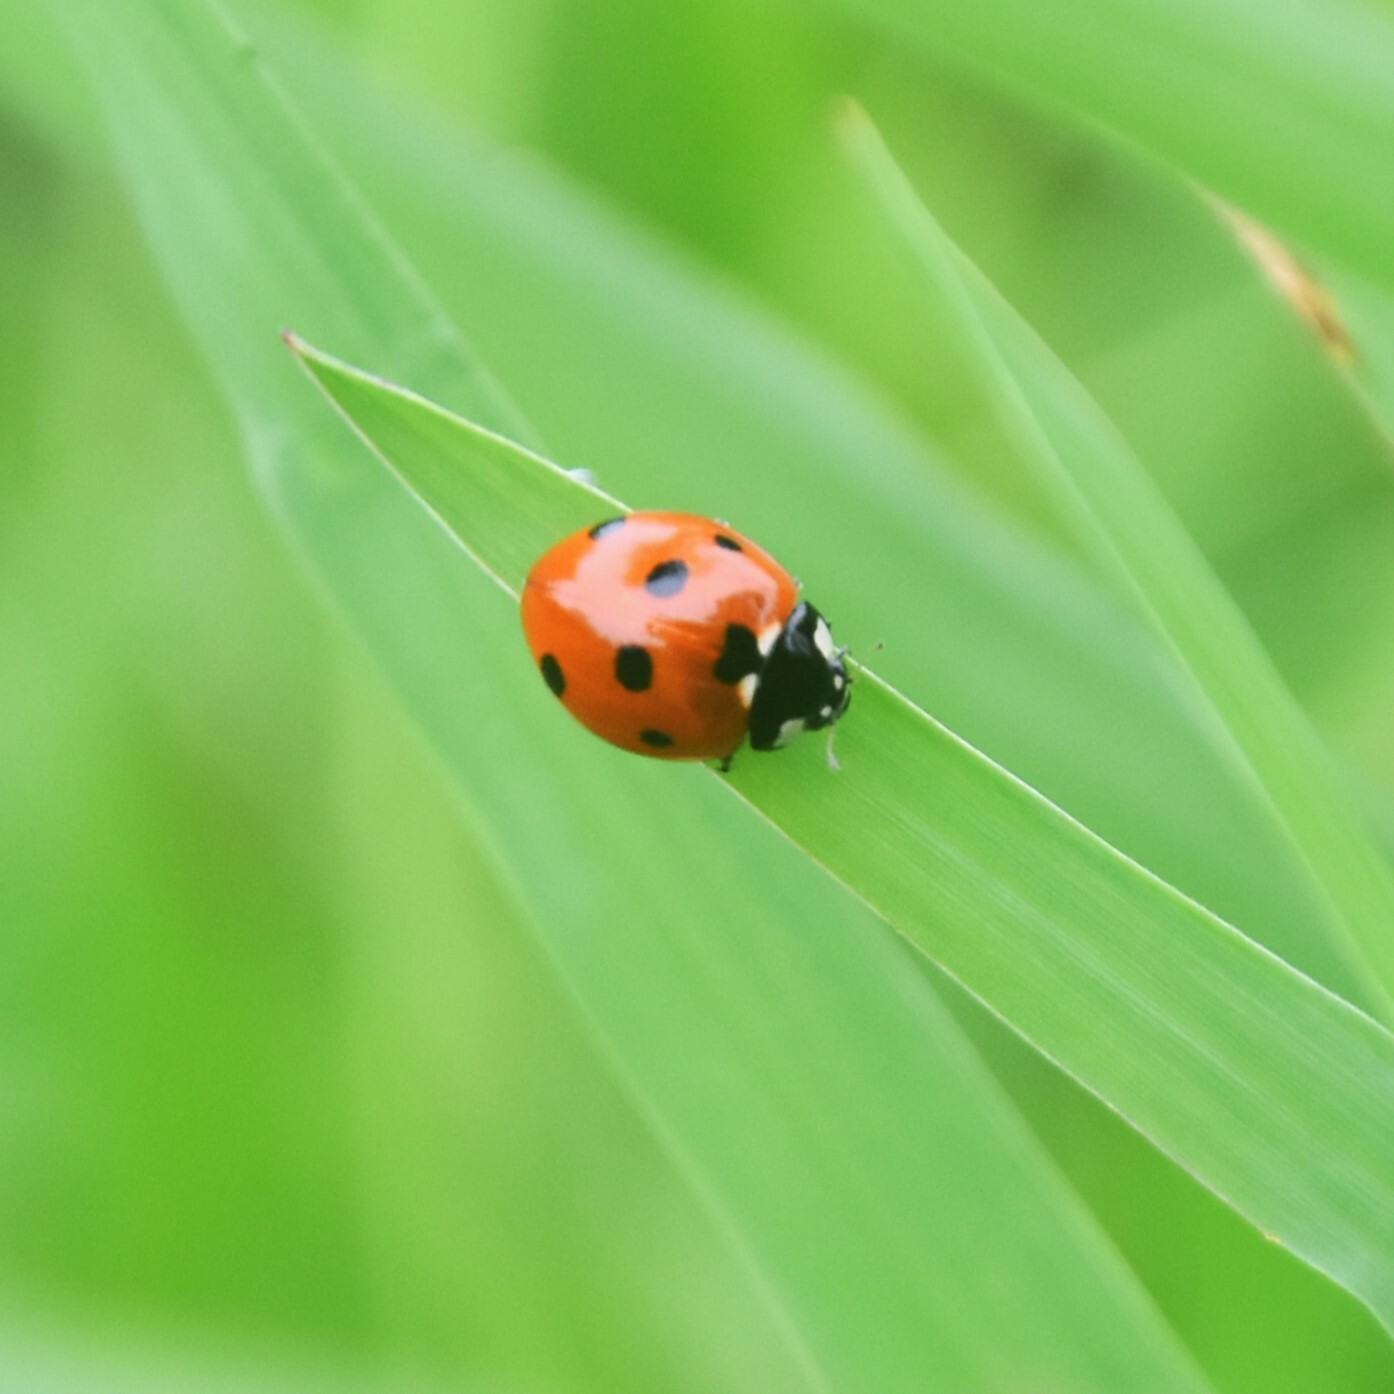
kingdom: Animalia
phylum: Arthropoda
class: Insecta
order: Coleoptera
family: Coccinellidae
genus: Coccinella
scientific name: Coccinella septempunctata
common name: Sevenspotted lady beetle
